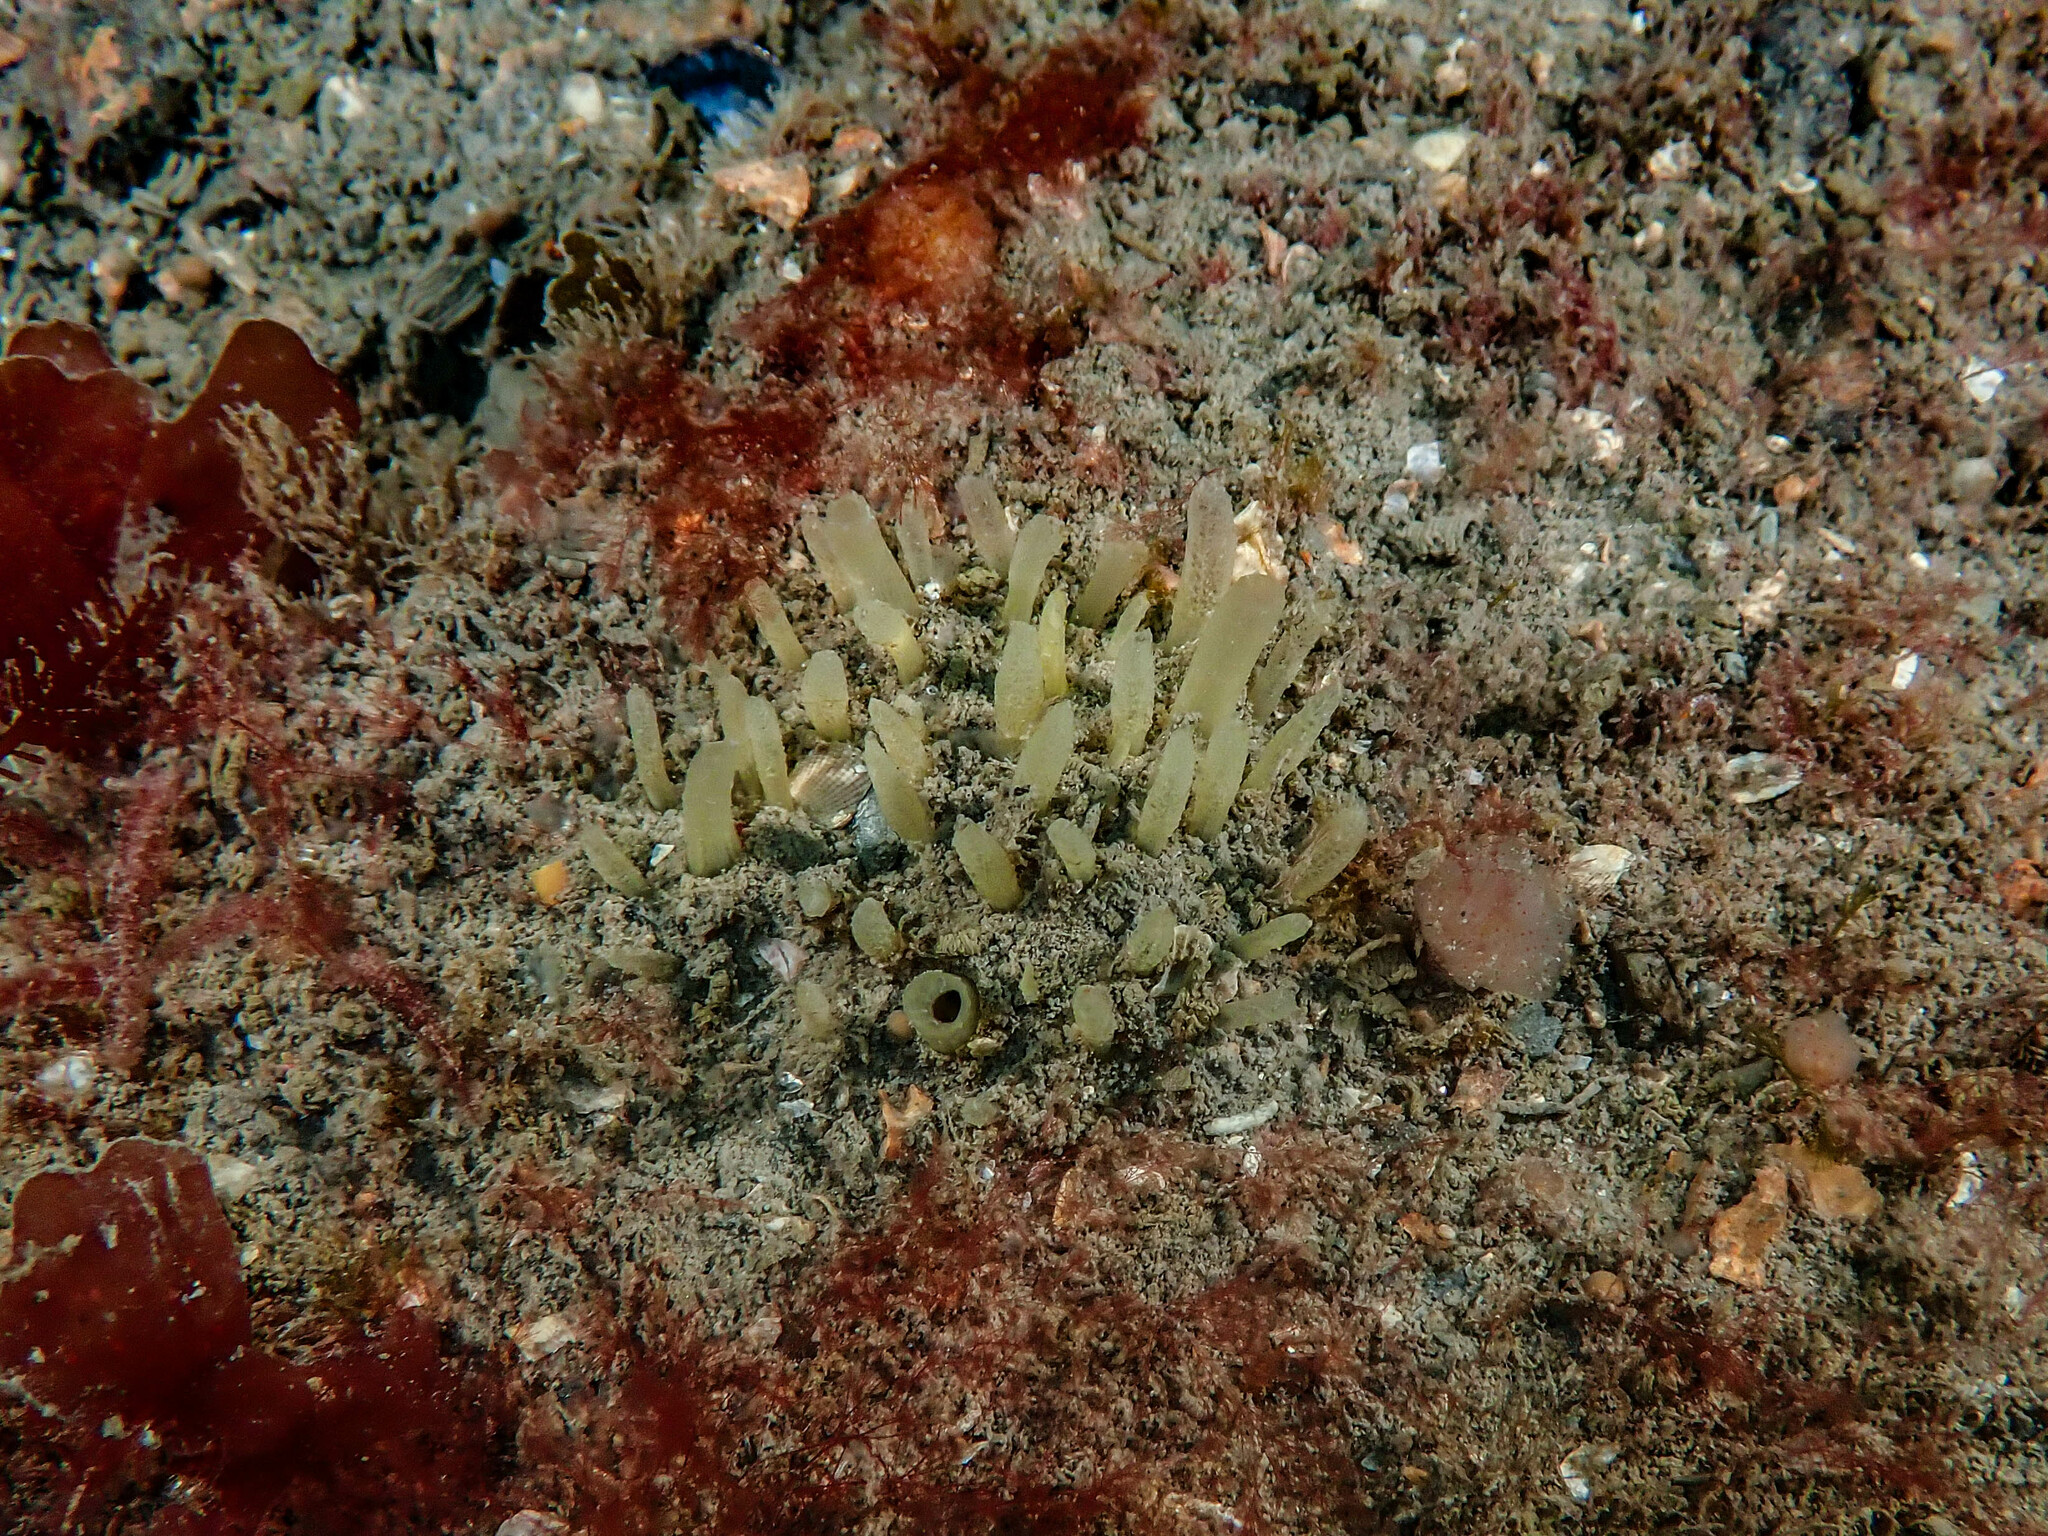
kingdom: Animalia
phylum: Porifera
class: Demospongiae
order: Polymastiida
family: Polymastiidae
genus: Polymastia
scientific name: Polymastia penicillus
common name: Chimney sponge
